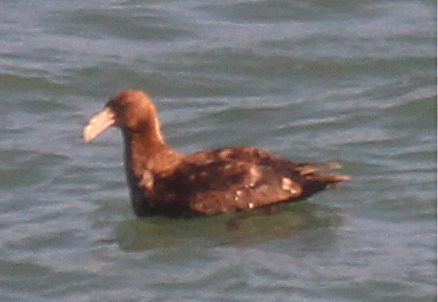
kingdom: Animalia
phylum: Chordata
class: Aves
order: Procellariiformes
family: Procellariidae
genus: Macronectes
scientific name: Macronectes giganteus
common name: Southern giant petrel
